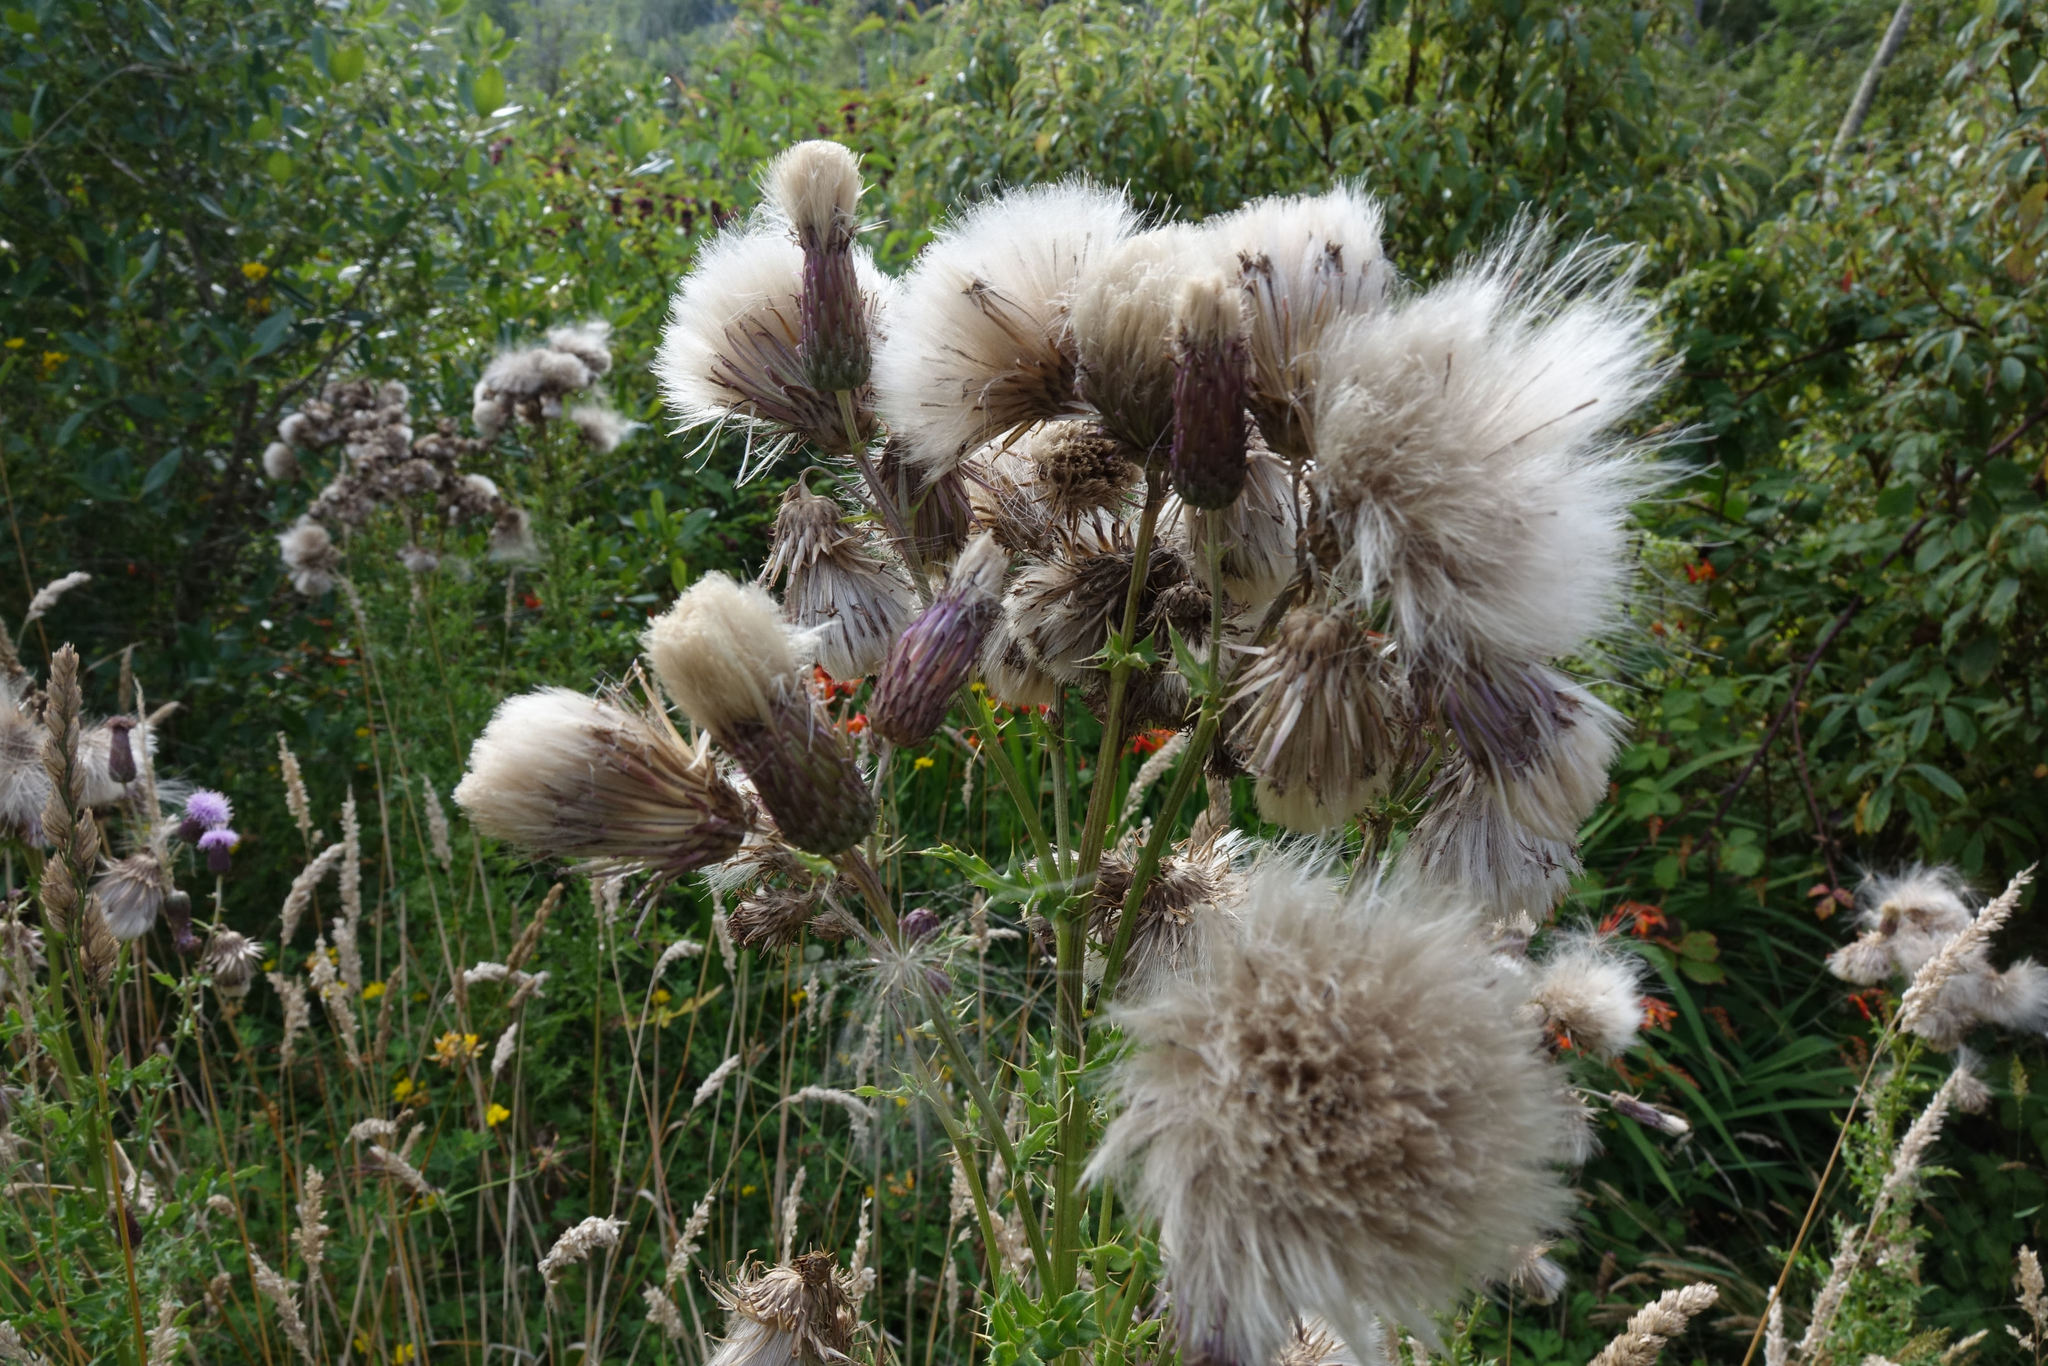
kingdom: Plantae
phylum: Tracheophyta
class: Magnoliopsida
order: Asterales
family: Asteraceae
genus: Cirsium
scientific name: Cirsium arvense
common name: Creeping thistle
